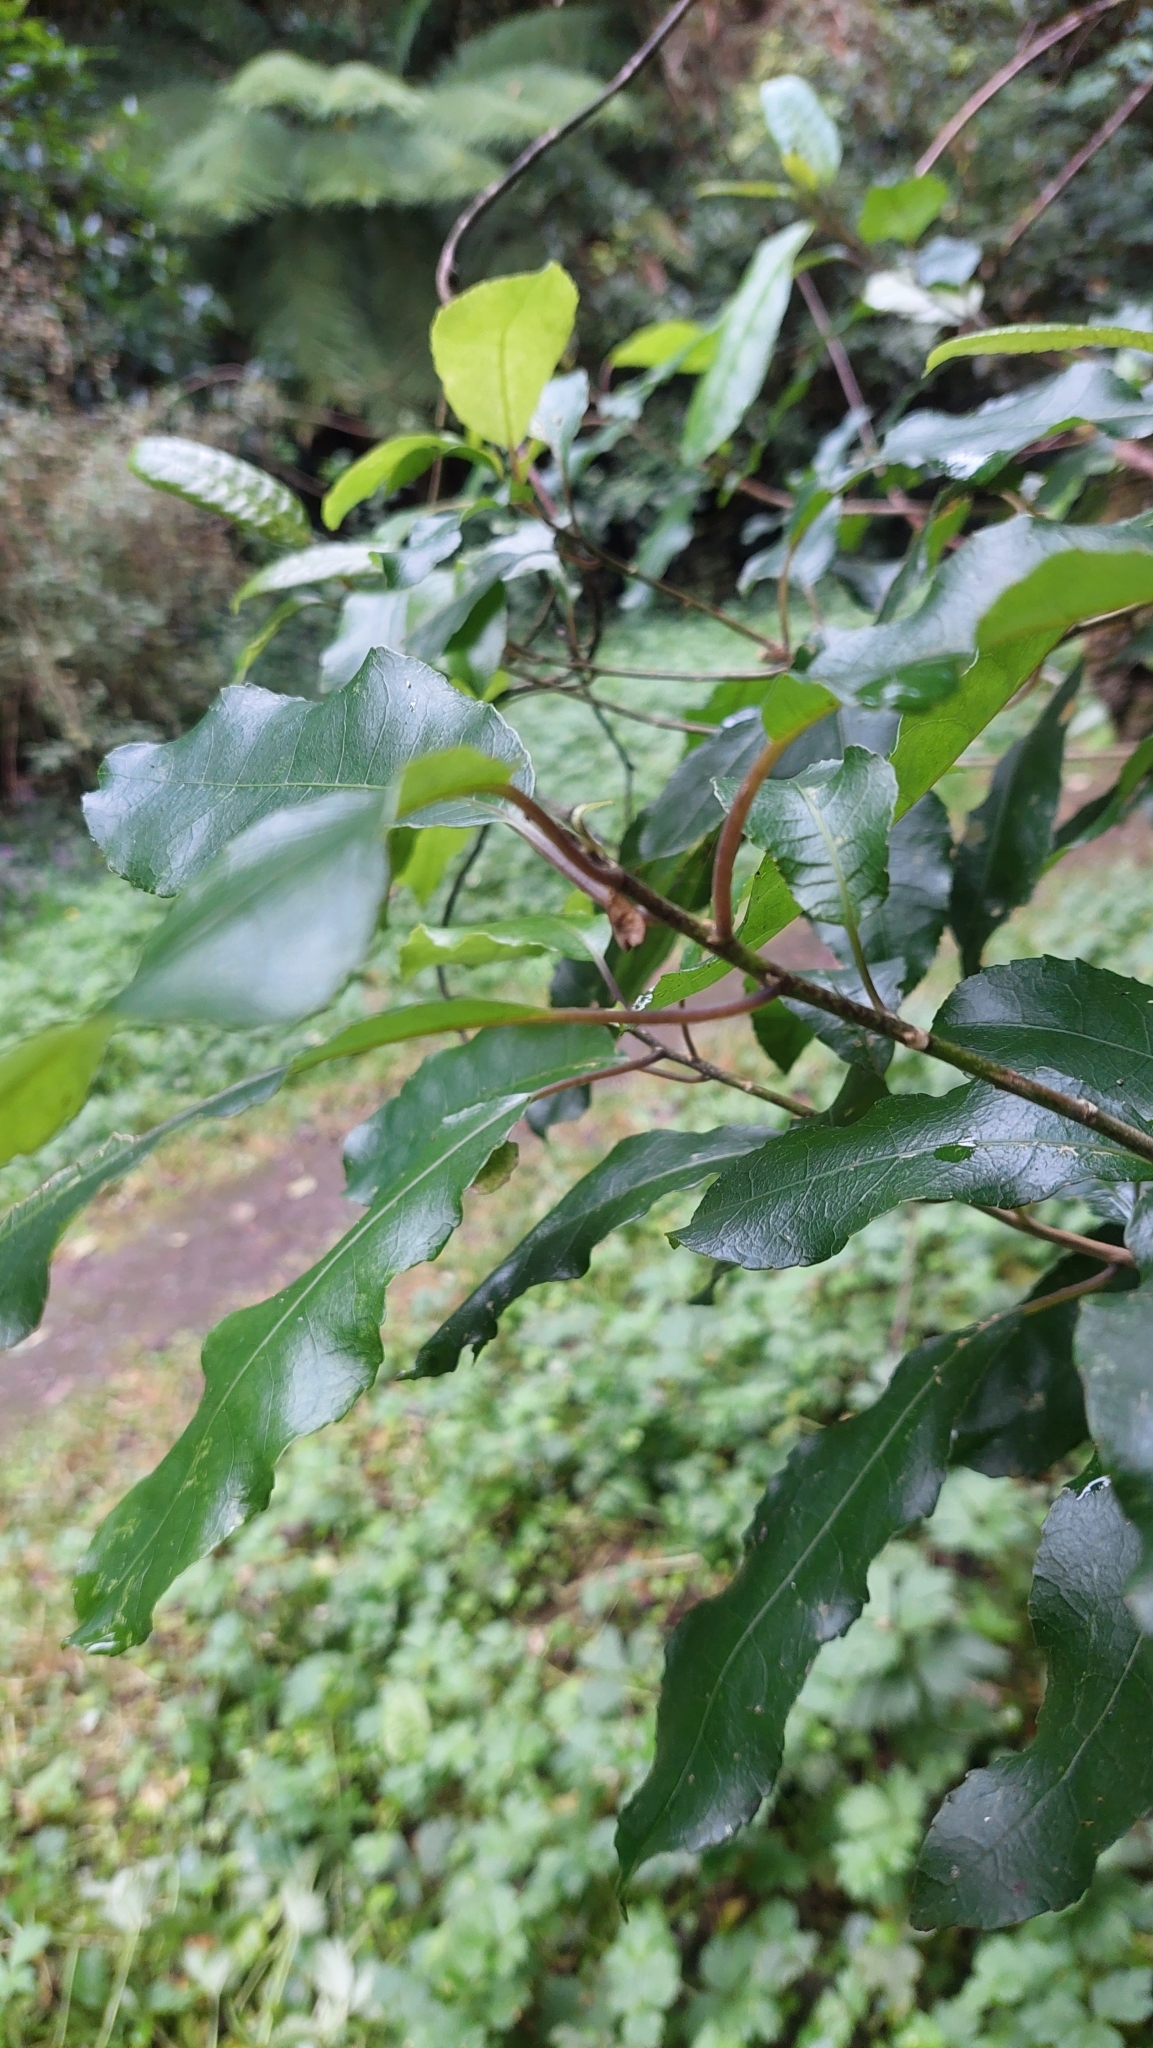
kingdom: Plantae
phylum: Tracheophyta
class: Magnoliopsida
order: Malpighiales
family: Violaceae
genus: Melicytus
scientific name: Melicytus ramiflorus
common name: Mahoe
